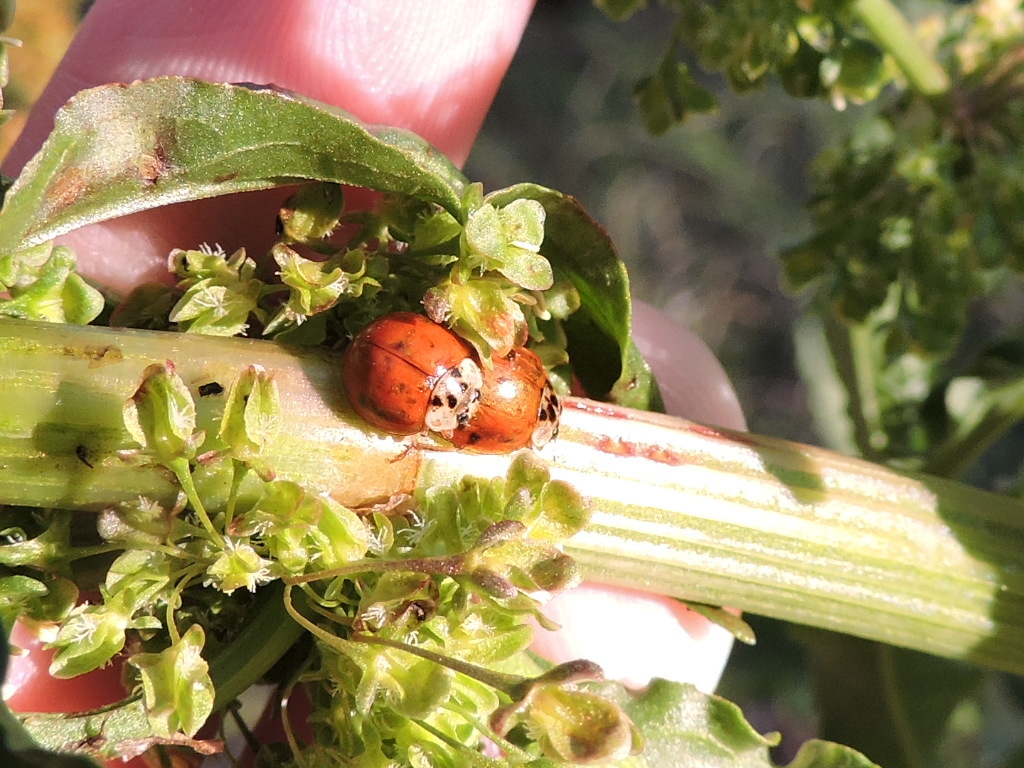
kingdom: Animalia
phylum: Arthropoda
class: Insecta
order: Coleoptera
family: Coccinellidae
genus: Harmonia
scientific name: Harmonia axyridis
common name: Harlequin ladybird
